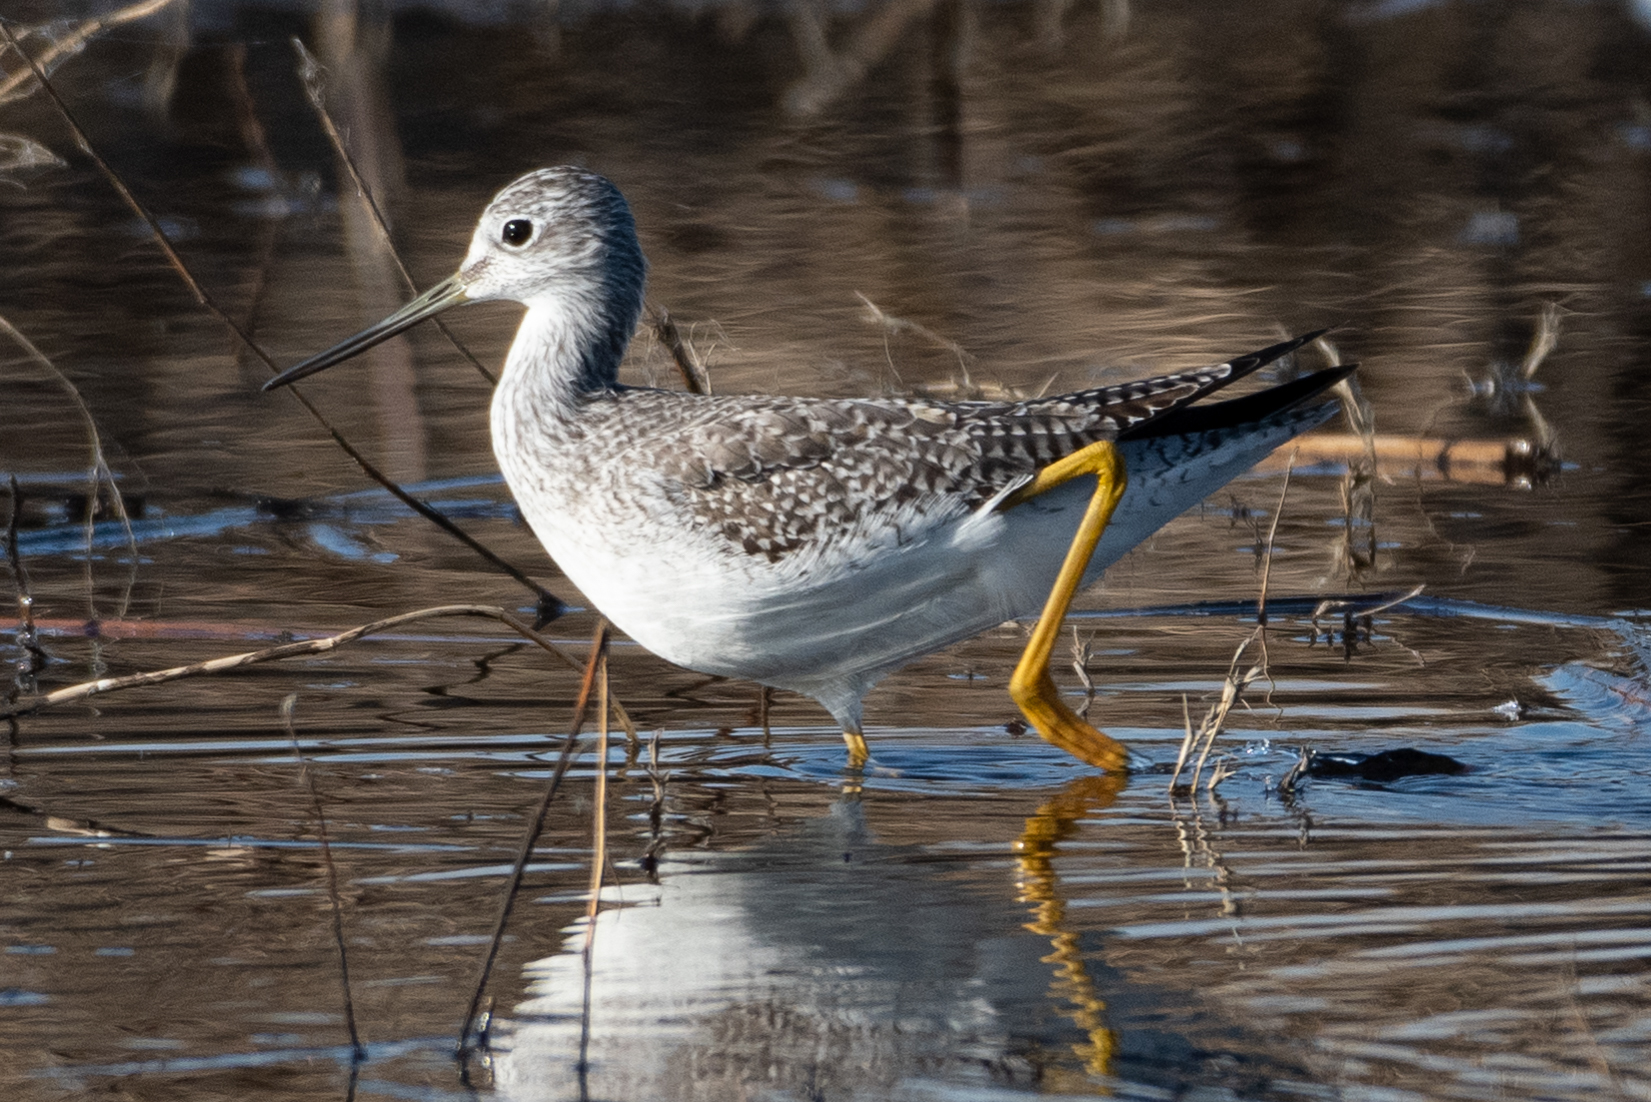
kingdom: Animalia
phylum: Chordata
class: Aves
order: Charadriiformes
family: Scolopacidae
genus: Tringa
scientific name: Tringa melanoleuca
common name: Greater yellowlegs
